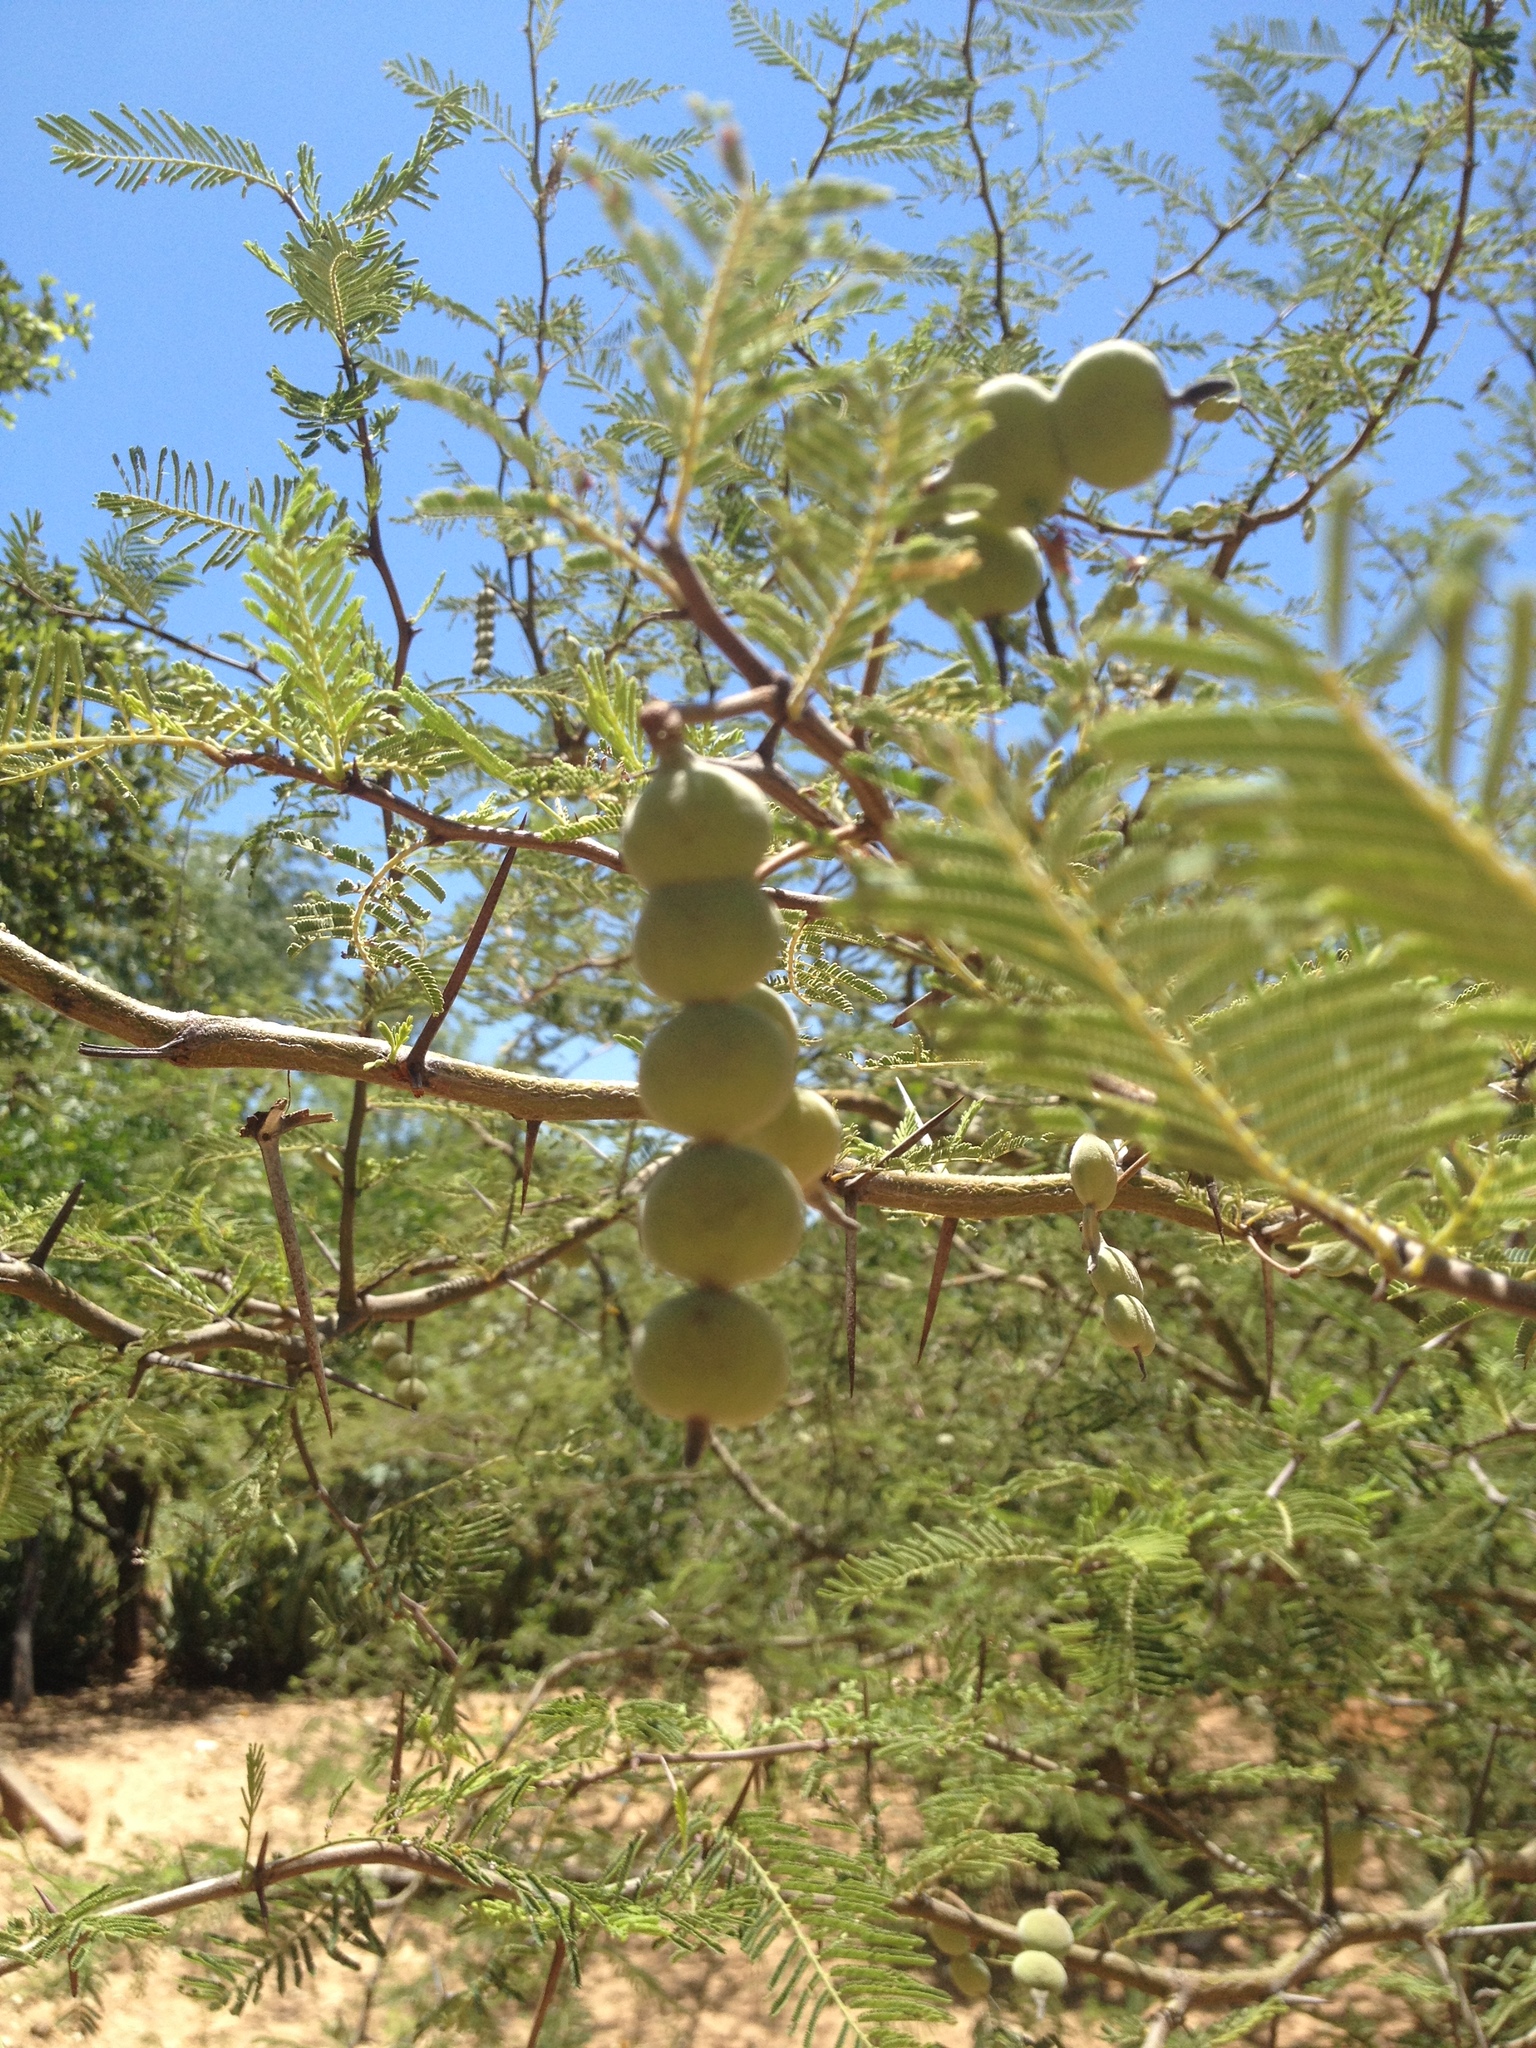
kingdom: Plantae
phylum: Tracheophyta
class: Magnoliopsida
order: Fabales
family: Fabaceae
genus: Vachellia
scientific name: Vachellia aroma
